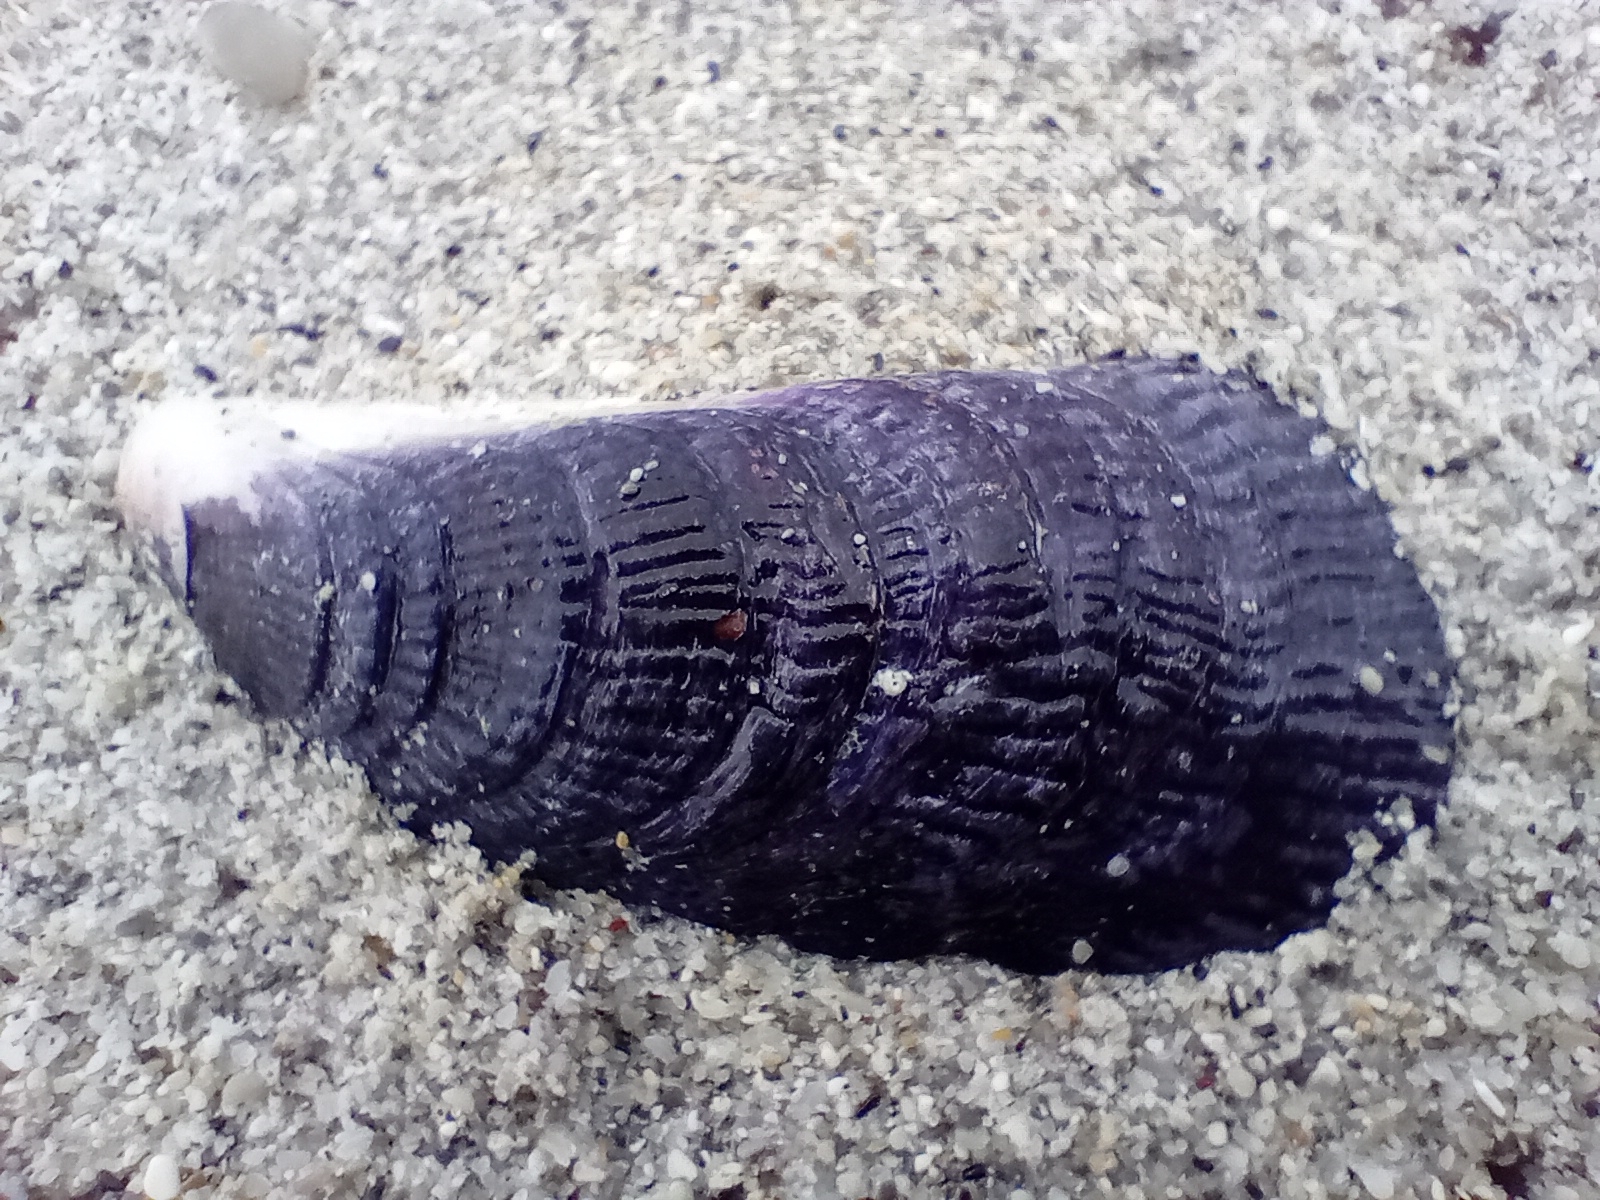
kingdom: Animalia
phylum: Mollusca
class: Bivalvia
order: Mytilida
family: Mytilidae
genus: Aulacomya
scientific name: Aulacomya maoriana
